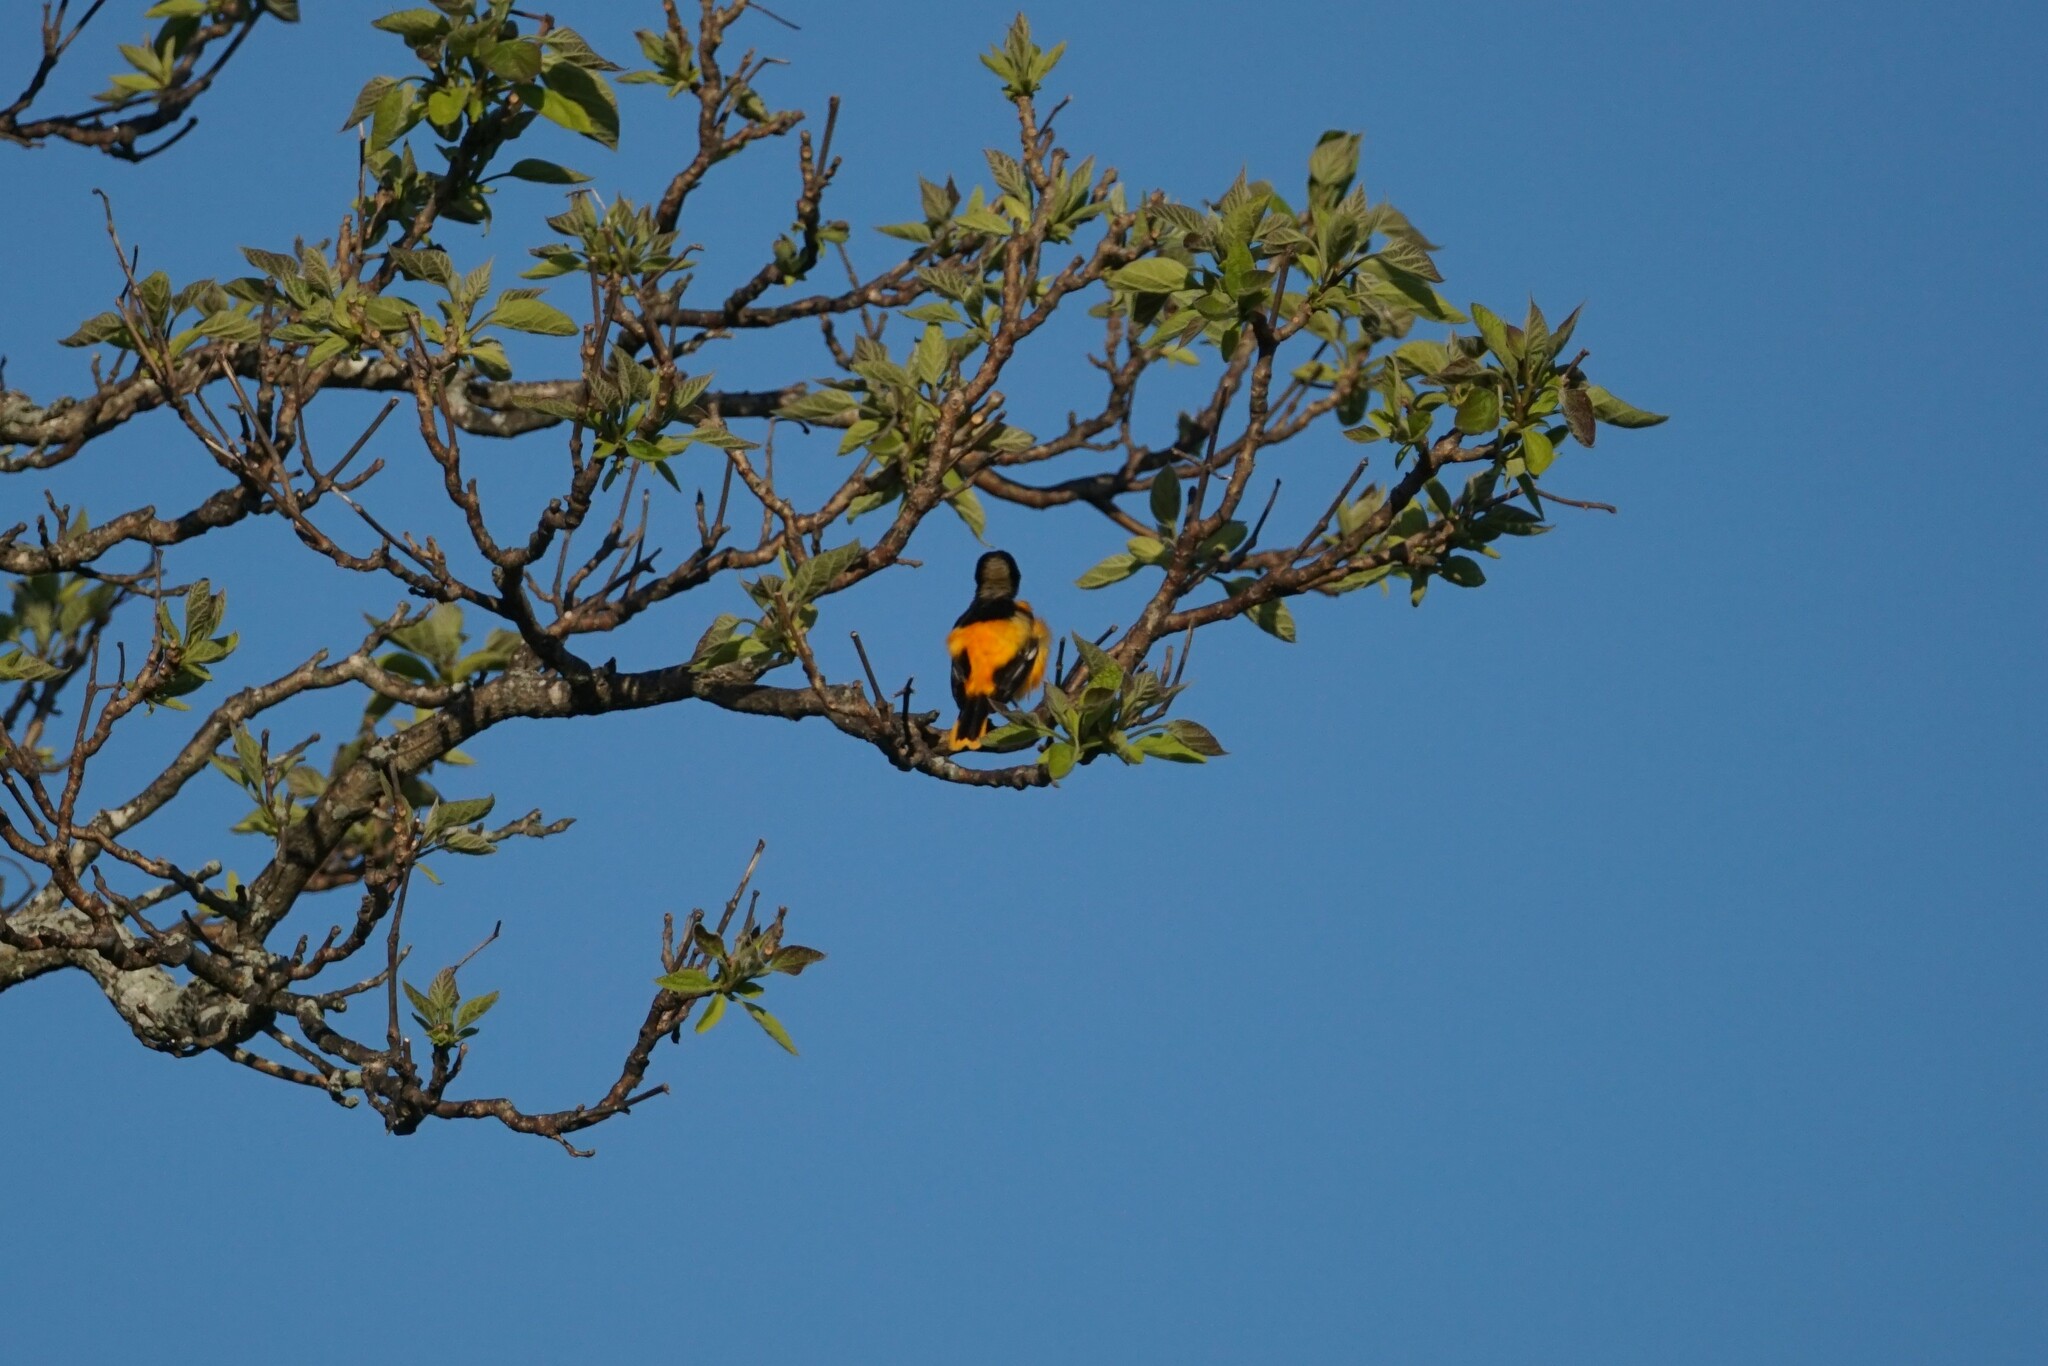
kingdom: Animalia
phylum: Chordata
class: Aves
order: Passeriformes
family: Icteridae
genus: Icterus
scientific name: Icterus galbula
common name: Baltimore oriole
